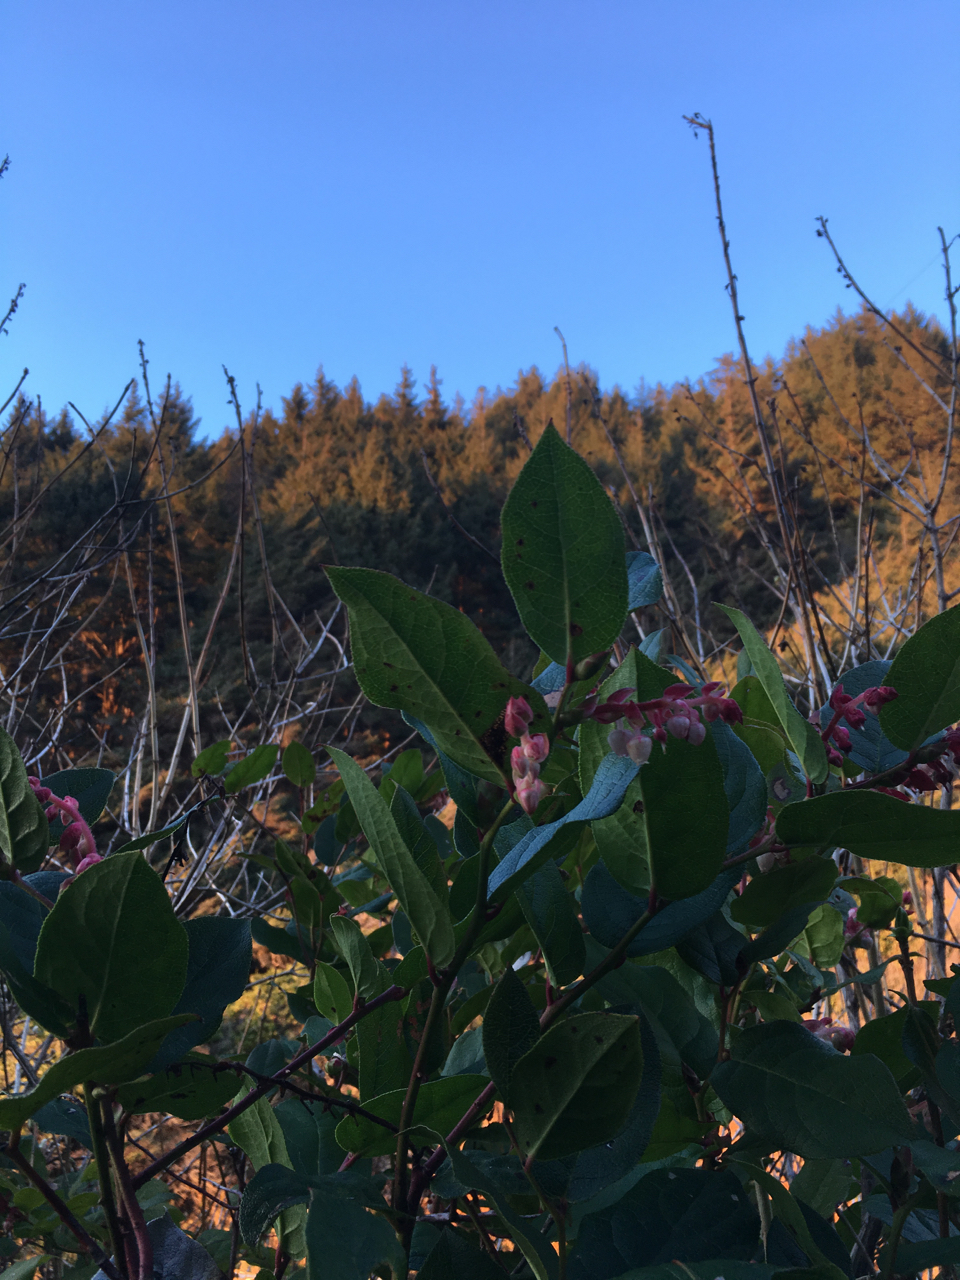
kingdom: Plantae
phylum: Tracheophyta
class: Magnoliopsida
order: Ericales
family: Ericaceae
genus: Gaultheria
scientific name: Gaultheria shallon
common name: Shallon
